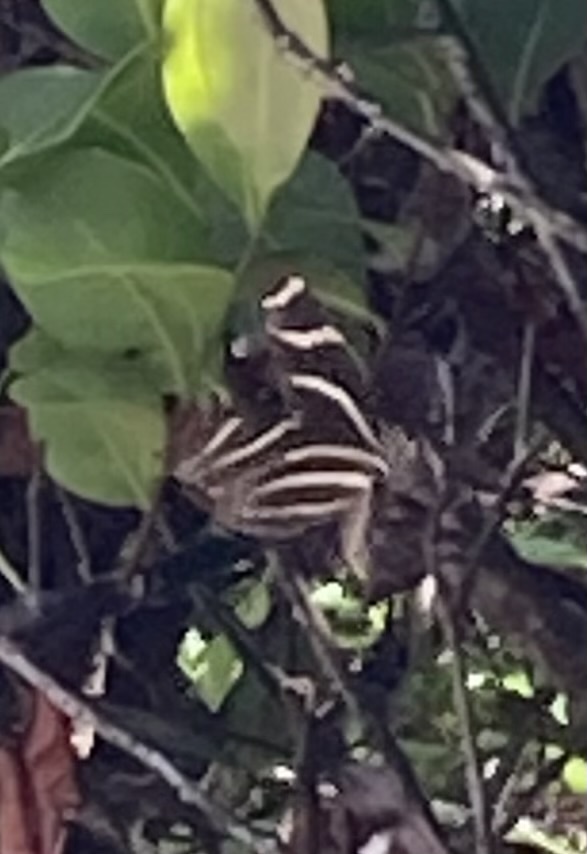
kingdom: Animalia
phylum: Arthropoda
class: Insecta
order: Lepidoptera
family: Nymphalidae
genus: Heliconius
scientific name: Heliconius charithonia
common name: Zebra long wing
